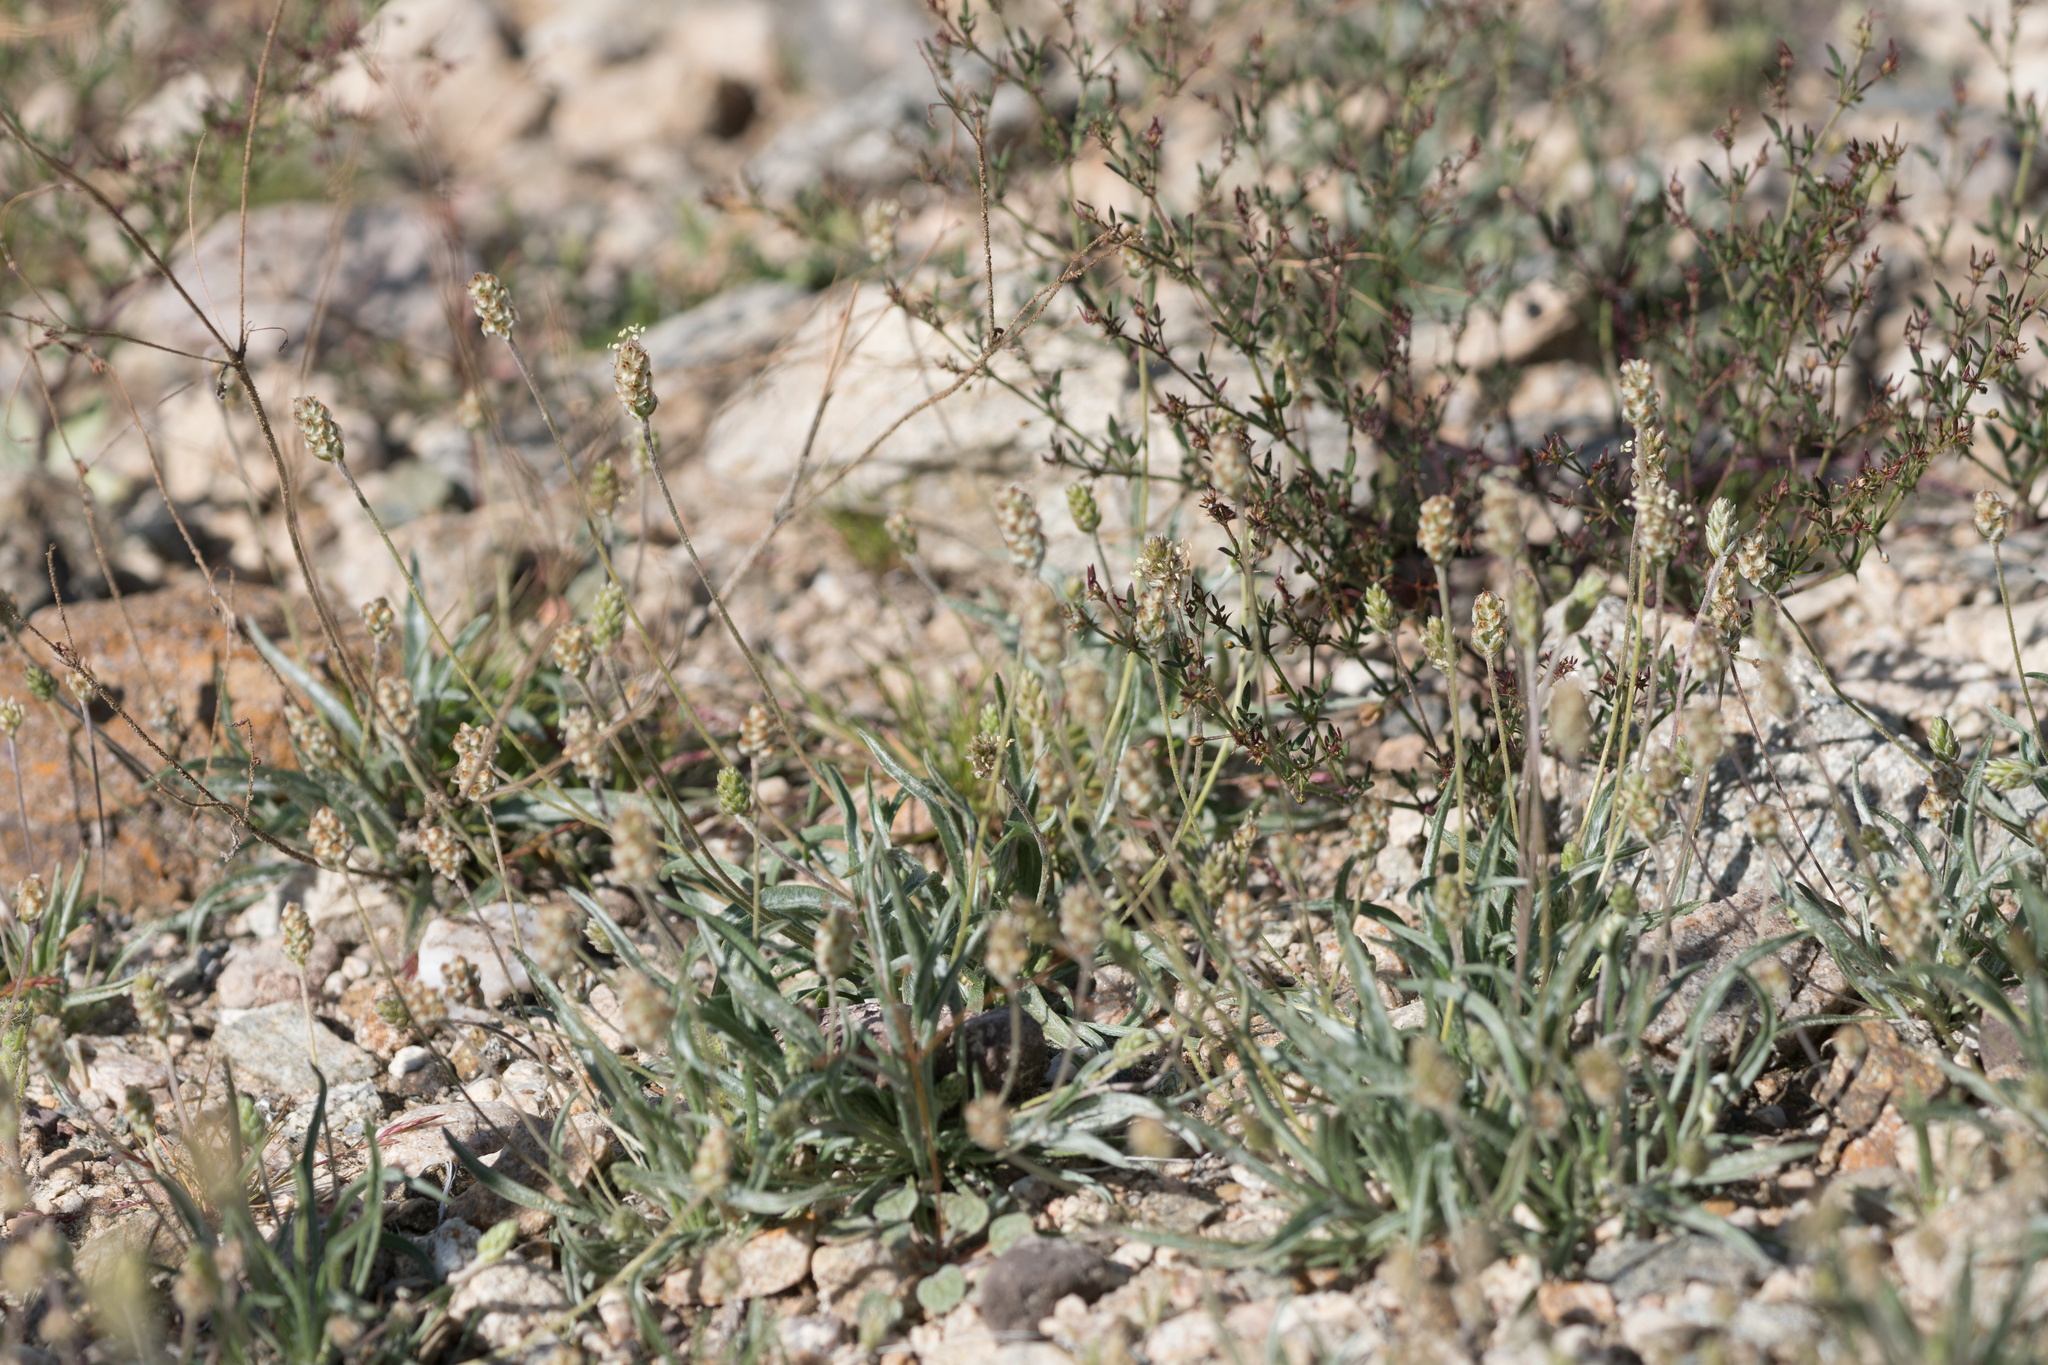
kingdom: Plantae
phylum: Tracheophyta
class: Magnoliopsida
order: Lamiales
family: Plantaginaceae
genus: Plantago
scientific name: Plantago ovata
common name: Blond plantain
